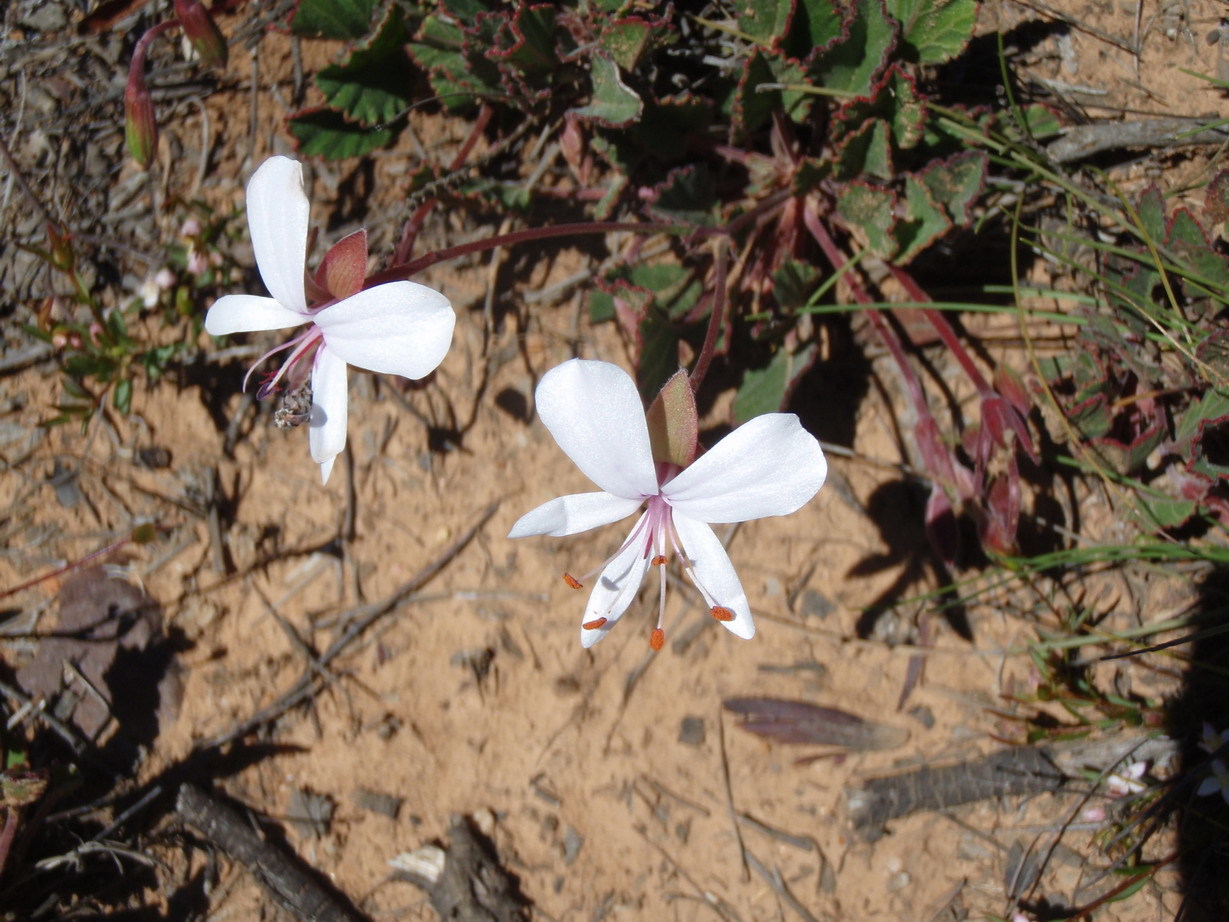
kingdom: Plantae
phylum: Tracheophyta
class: Magnoliopsida
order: Geraniales
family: Geraniaceae
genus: Pelargonium
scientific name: Pelargonium ovale
